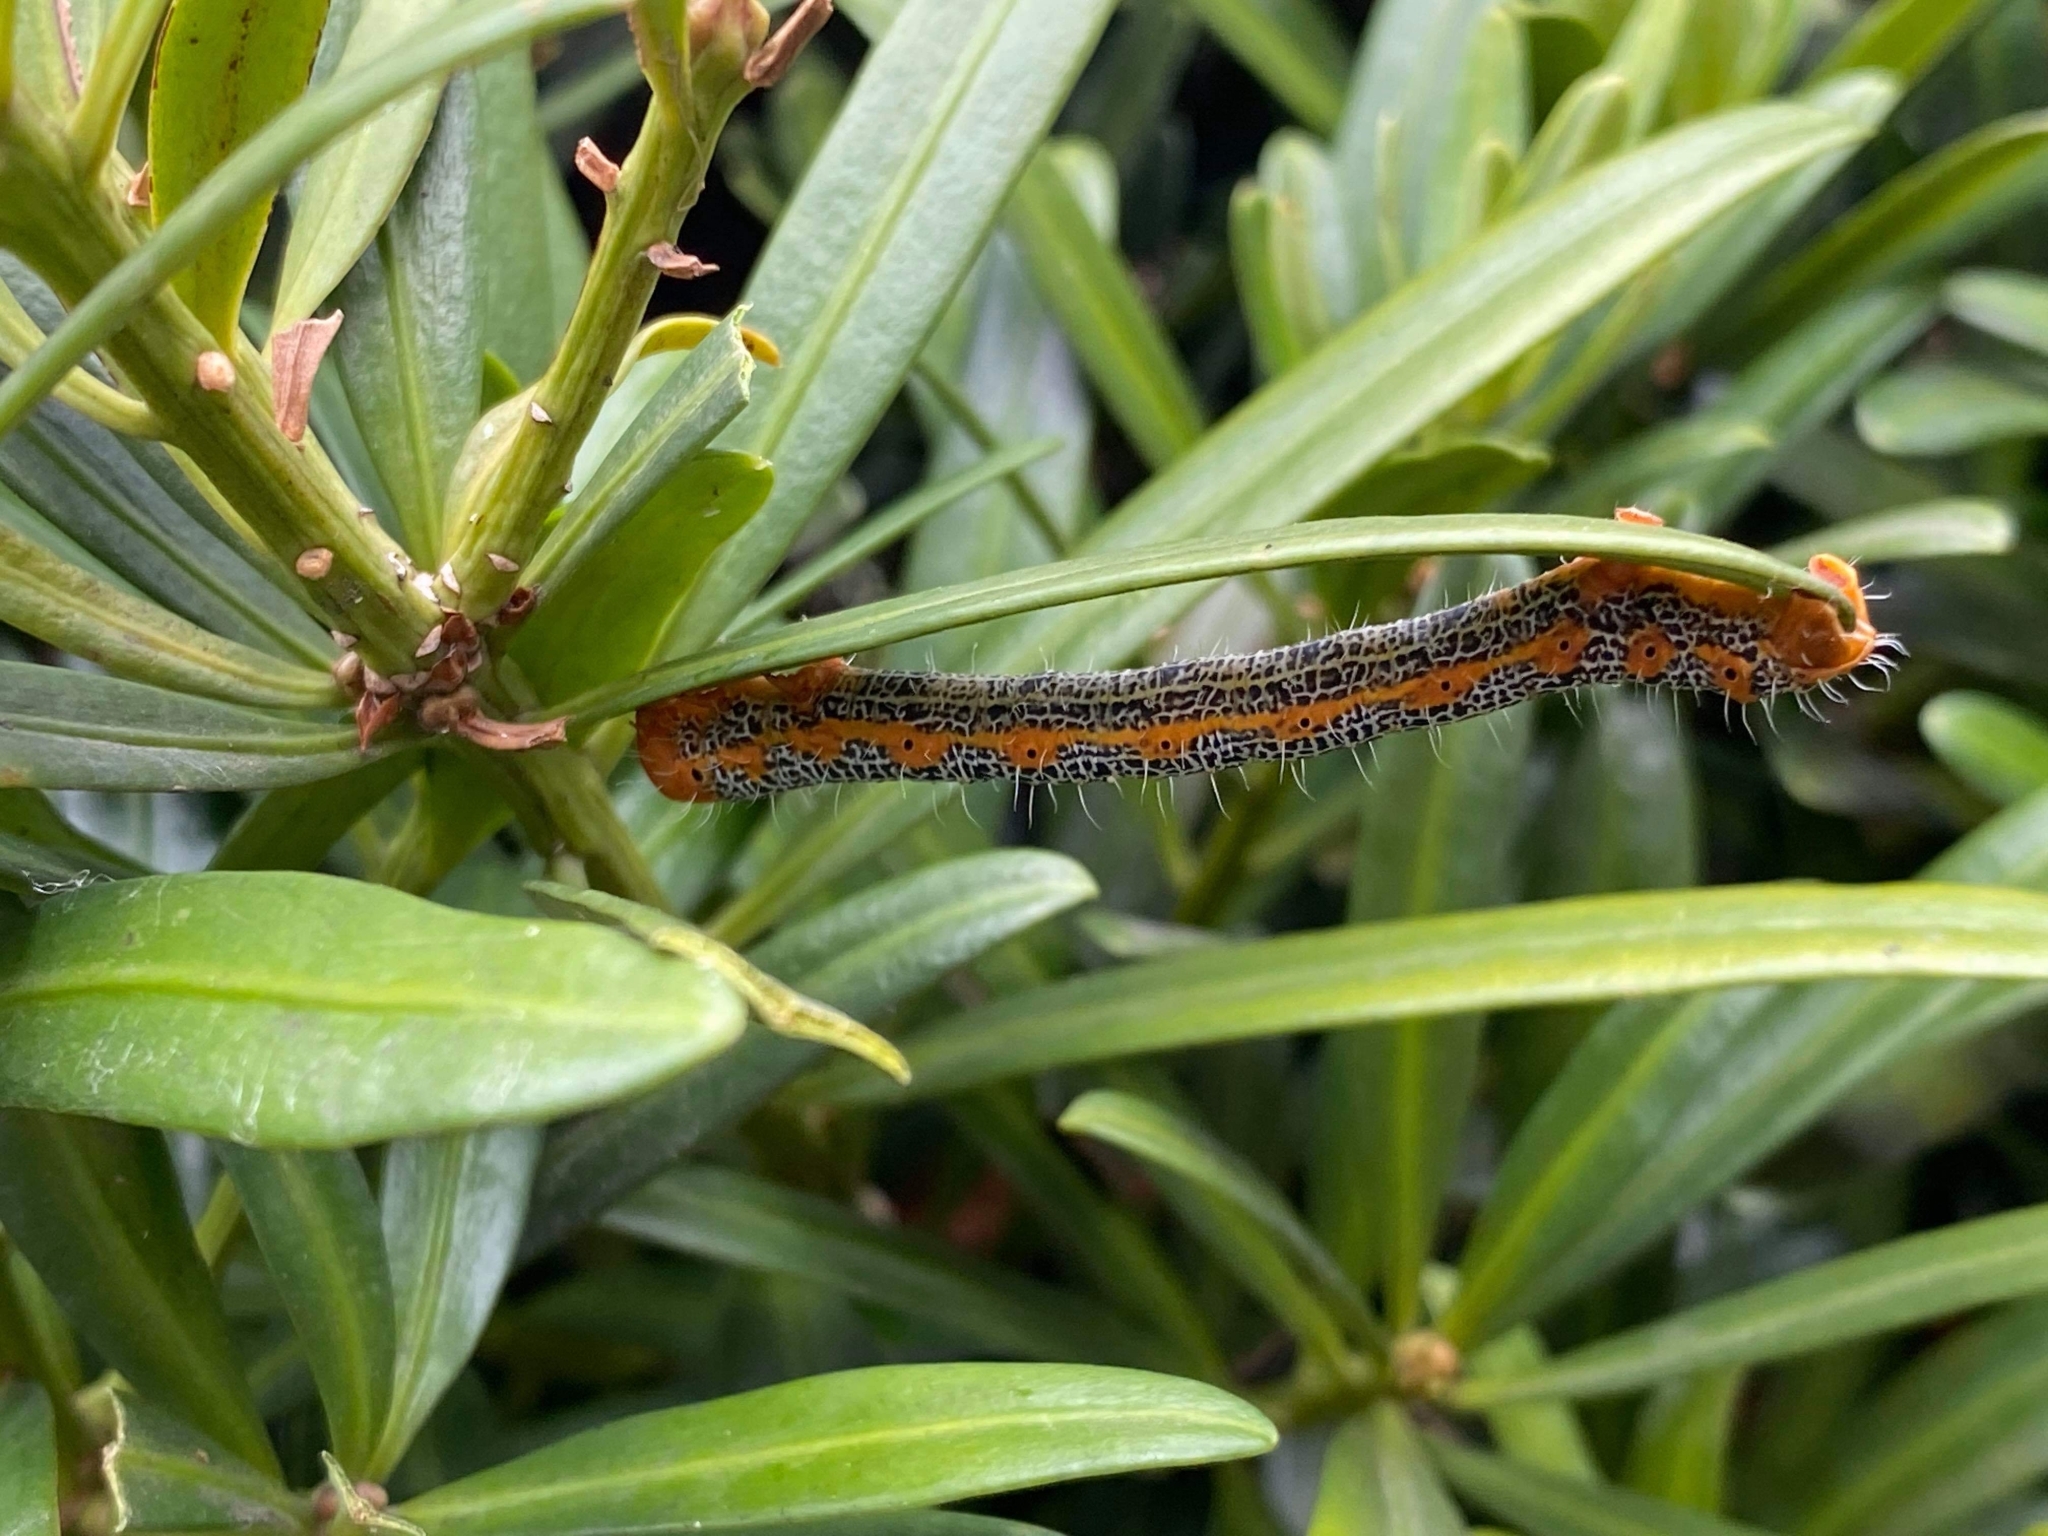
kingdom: Animalia
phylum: Arthropoda
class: Insecta
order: Lepidoptera
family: Geometridae
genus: Milionia
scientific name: Milionia basalis
